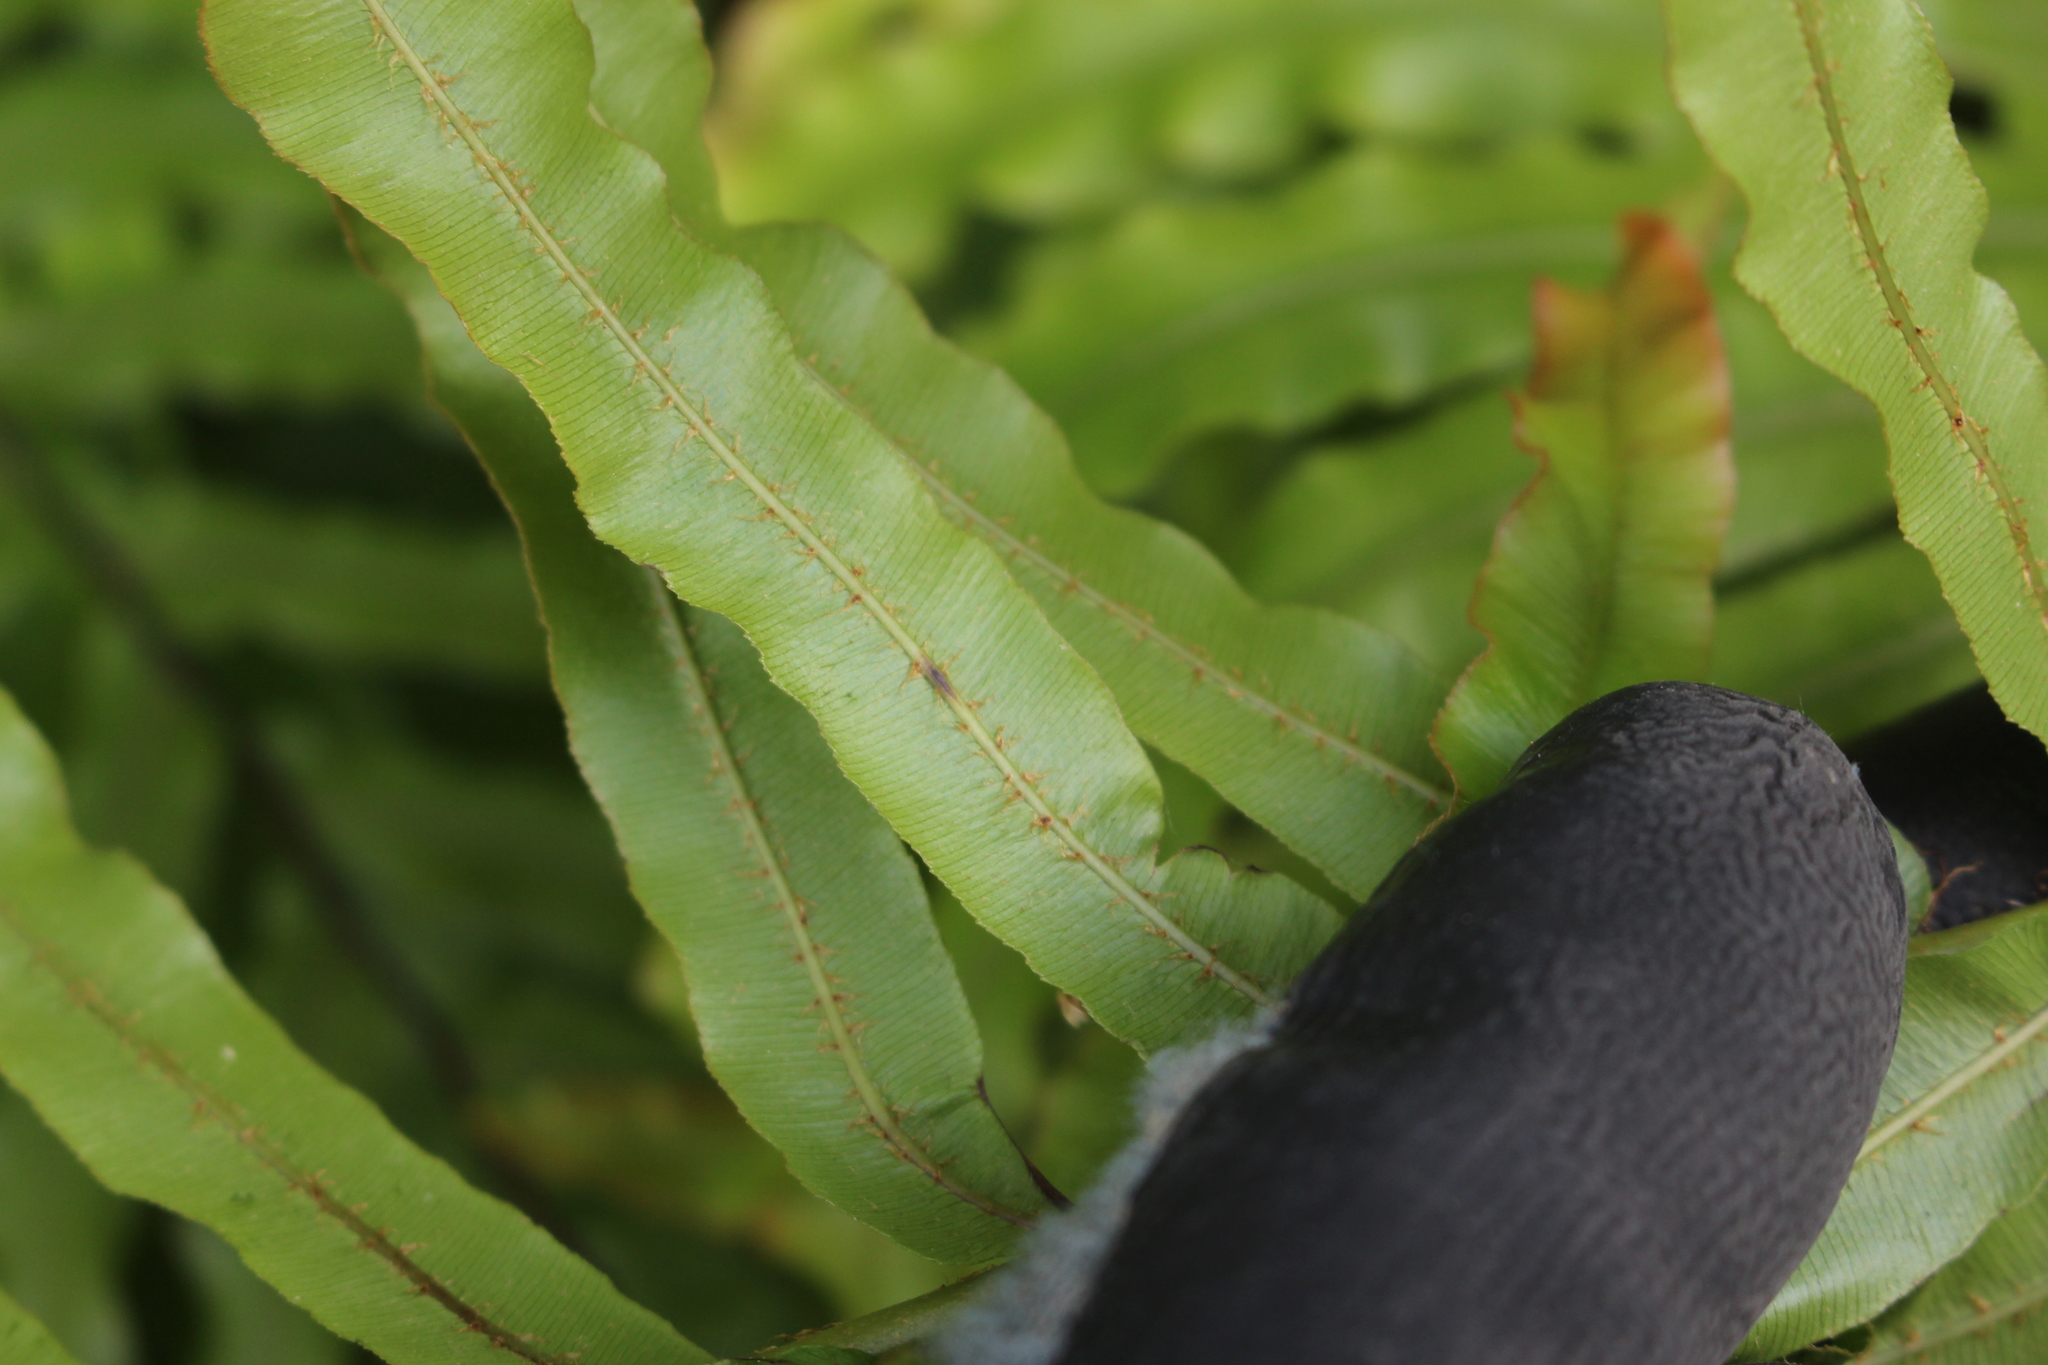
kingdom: Plantae
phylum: Tracheophyta
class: Polypodiopsida
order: Polypodiales
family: Blechnaceae
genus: Parablechnum
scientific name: Parablechnum novae-zelandiae
